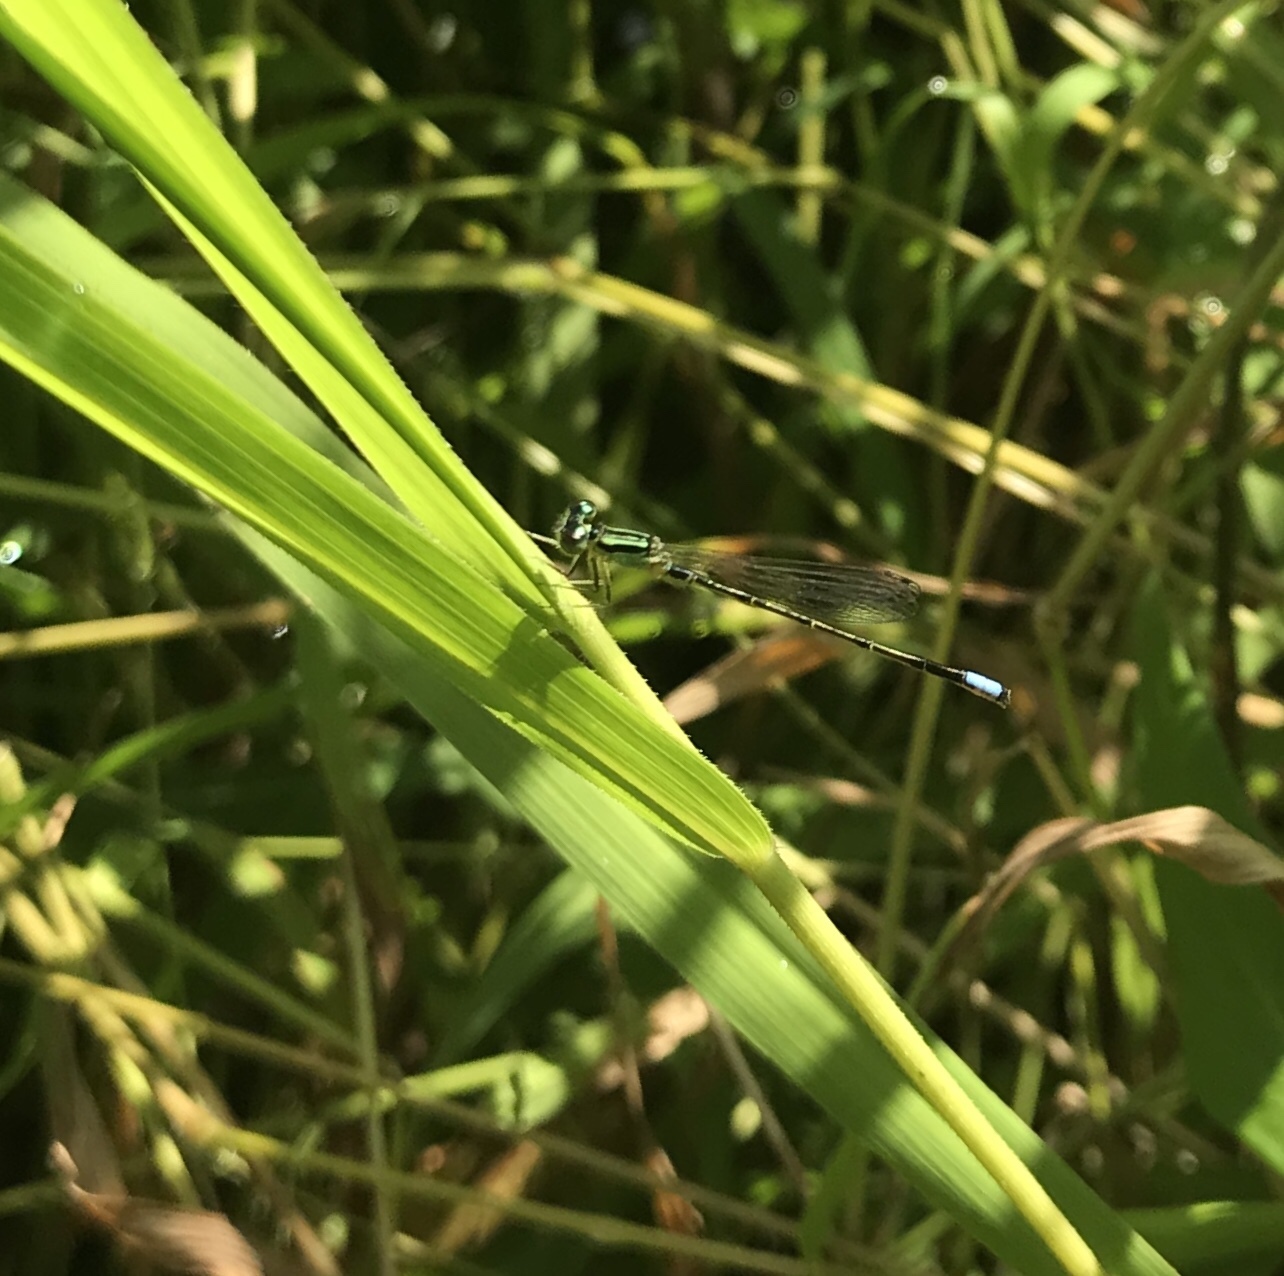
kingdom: Animalia
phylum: Arthropoda
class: Insecta
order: Odonata
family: Coenagrionidae
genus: Ischnura
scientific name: Ischnura verticalis
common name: Eastern forktail
